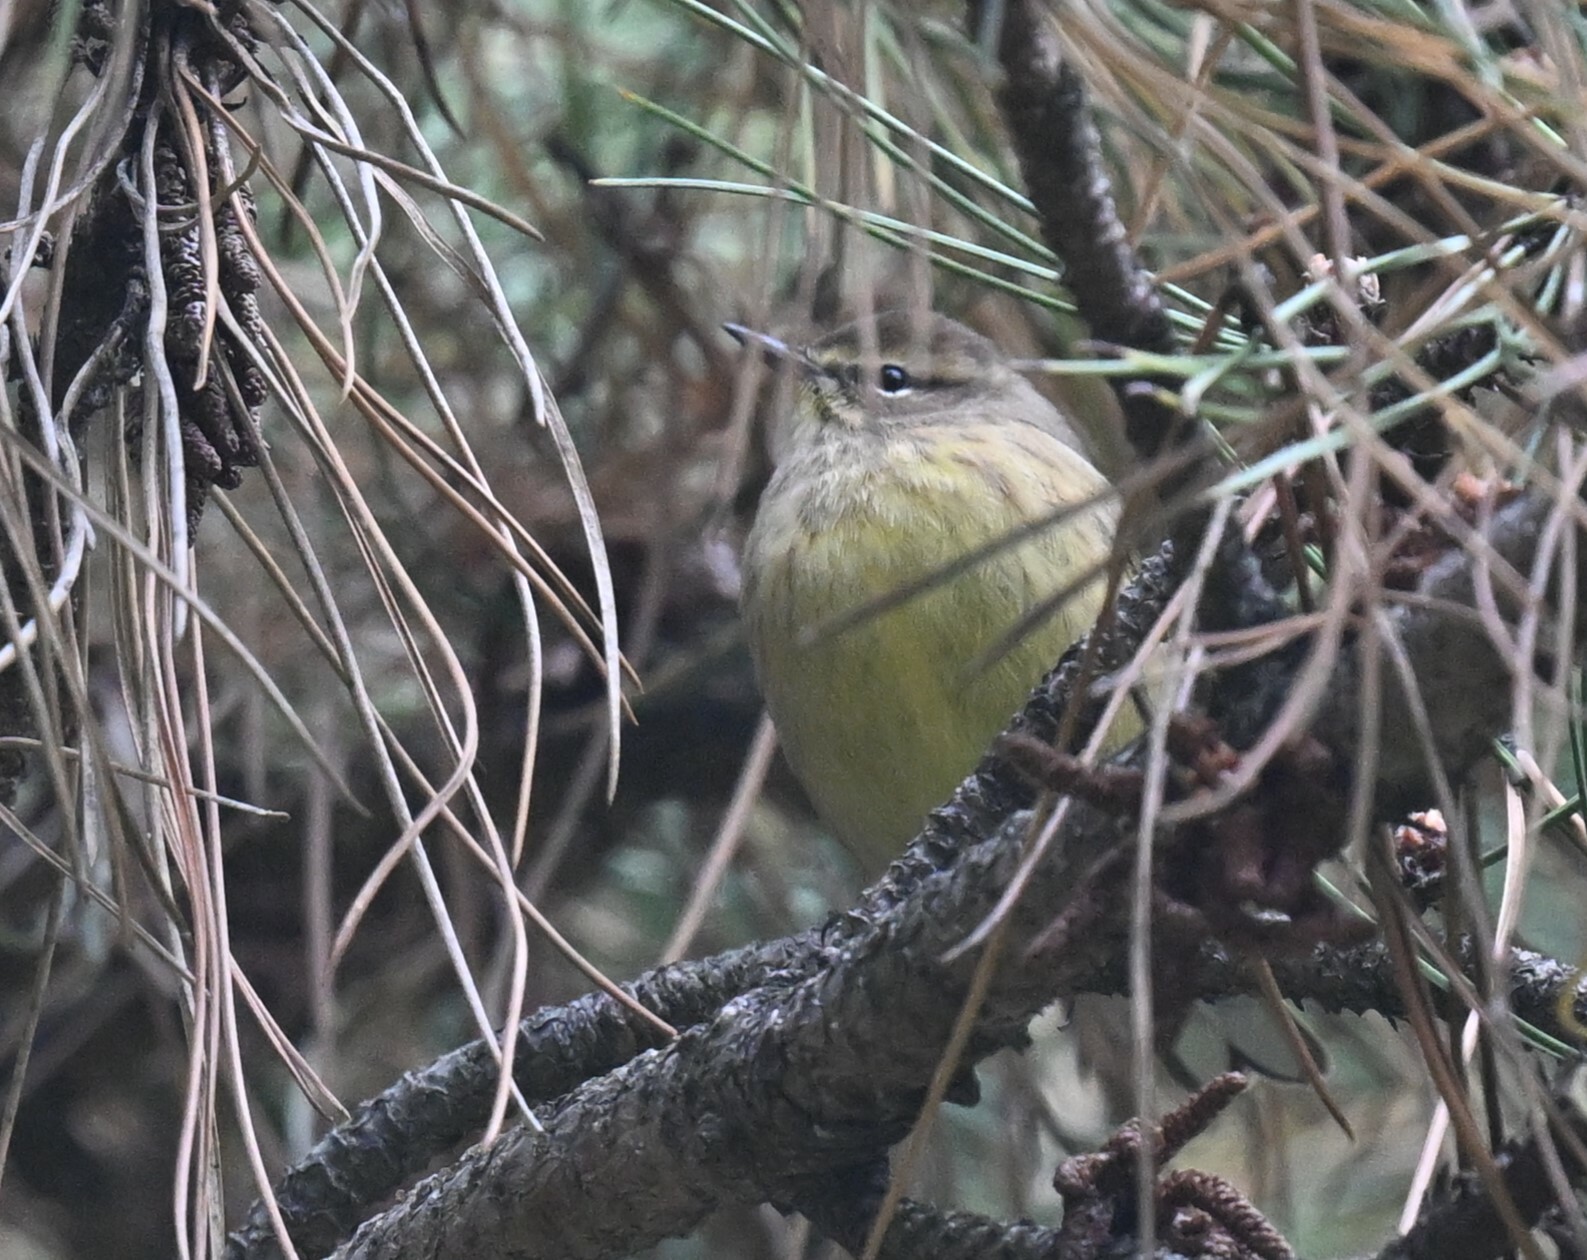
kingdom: Animalia
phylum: Chordata
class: Aves
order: Passeriformes
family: Parulidae
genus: Setophaga
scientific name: Setophaga palmarum
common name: Palm warbler
